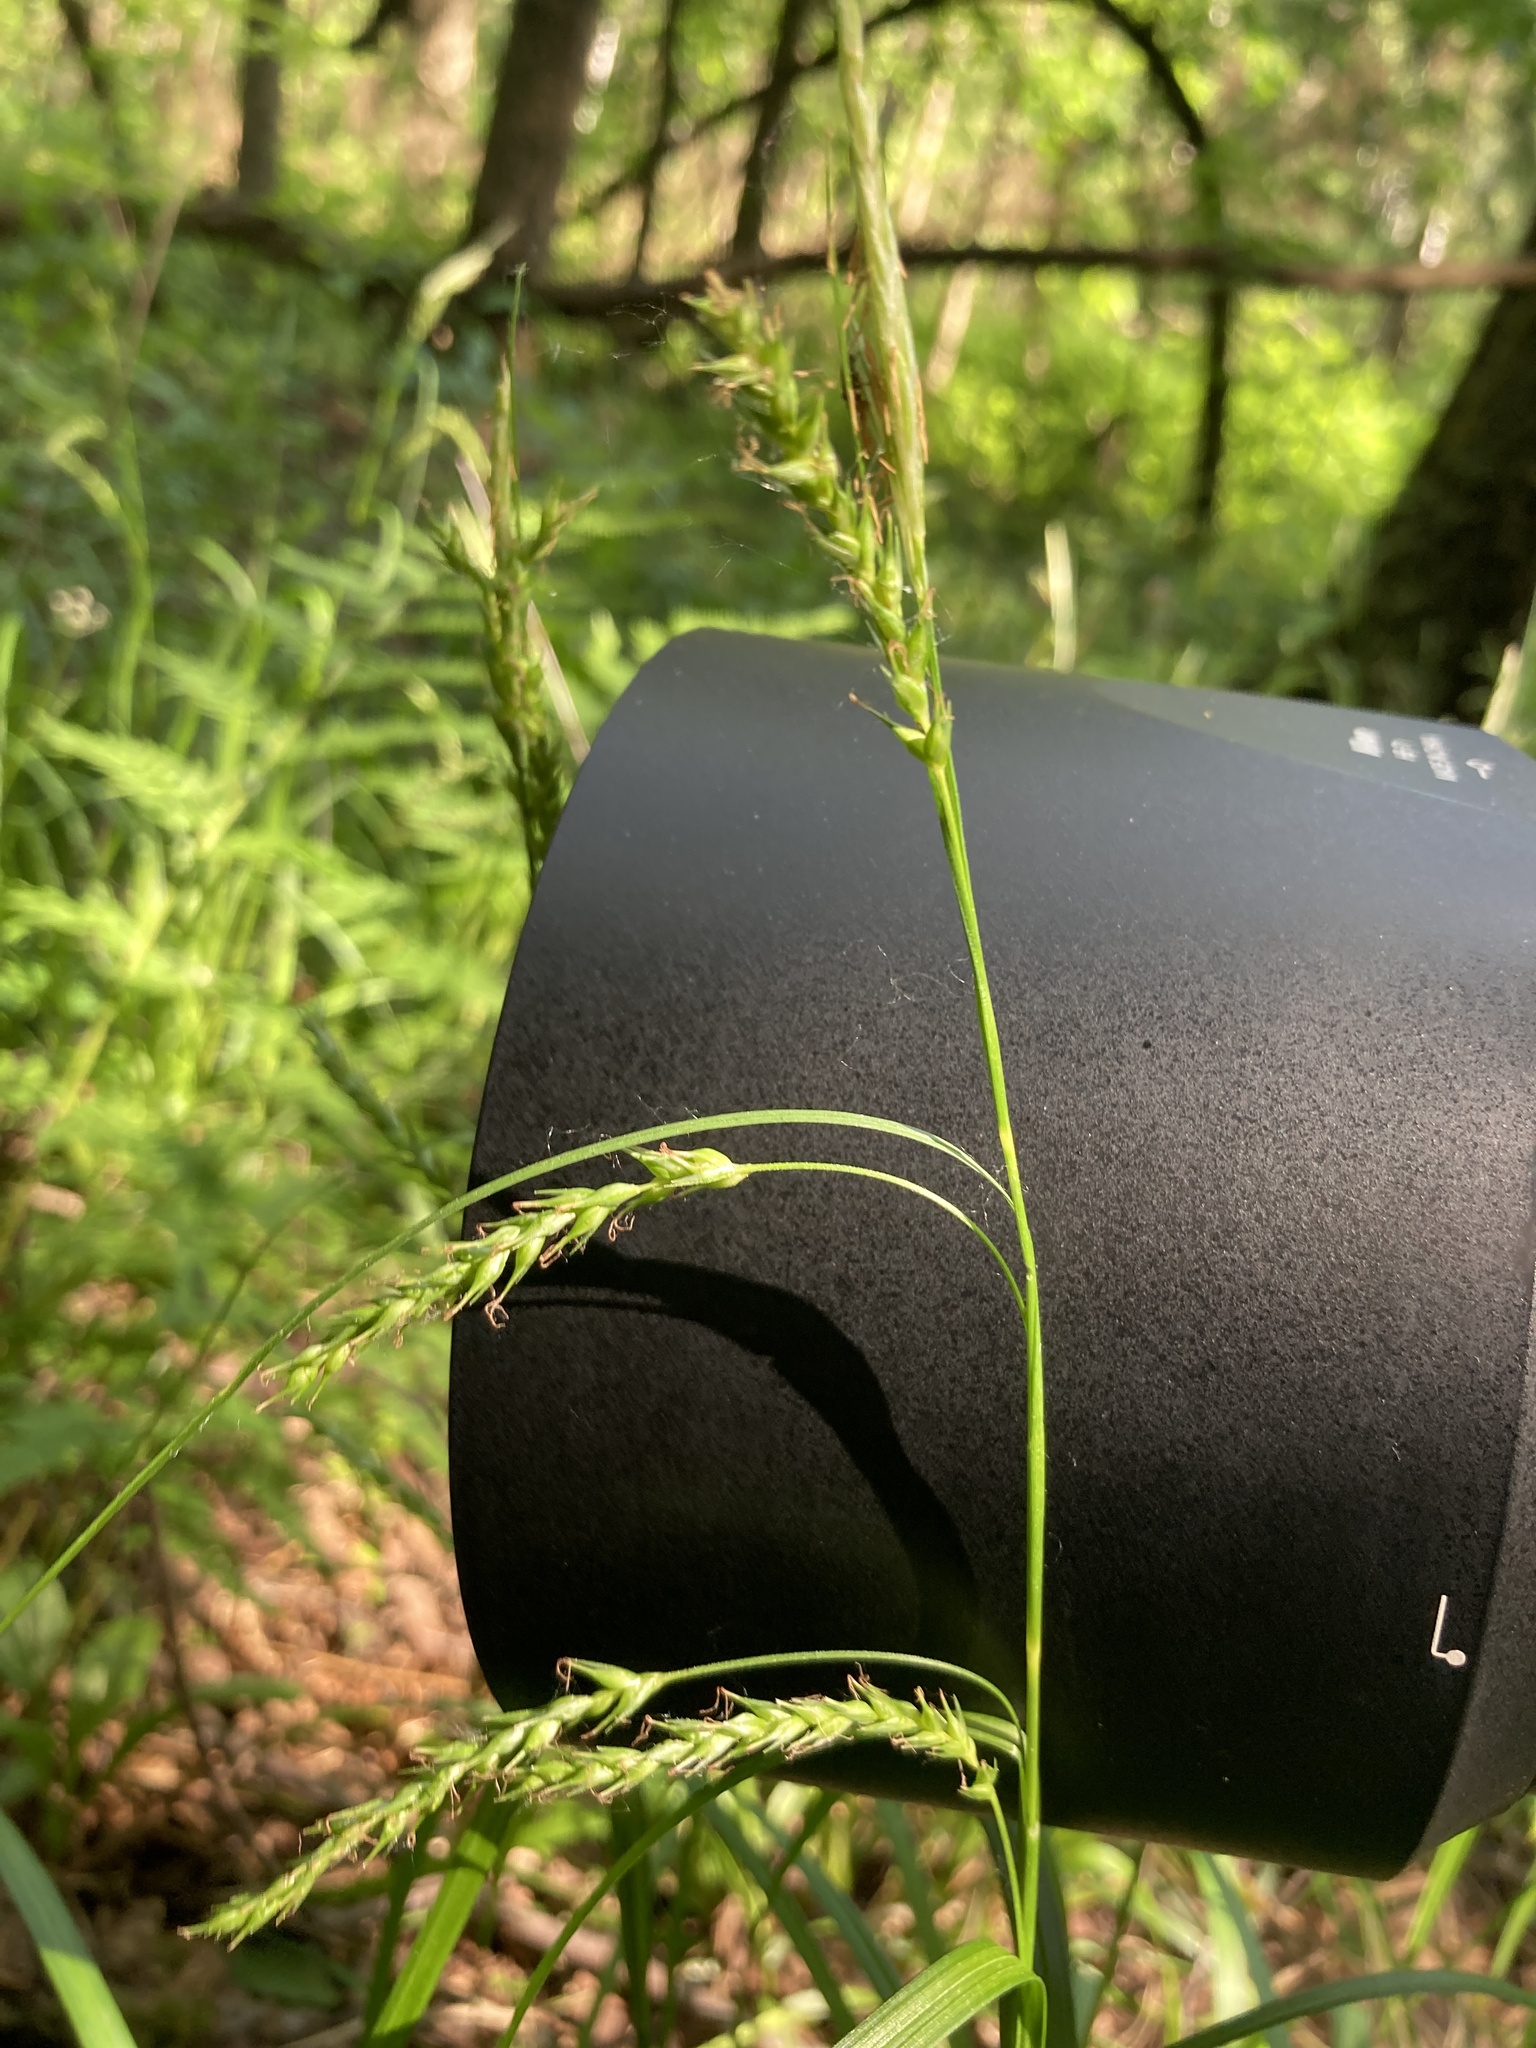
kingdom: Plantae
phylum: Tracheophyta
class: Liliopsida
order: Poales
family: Cyperaceae
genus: Carex
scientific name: Carex sylvatica
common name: Wood-sedge
